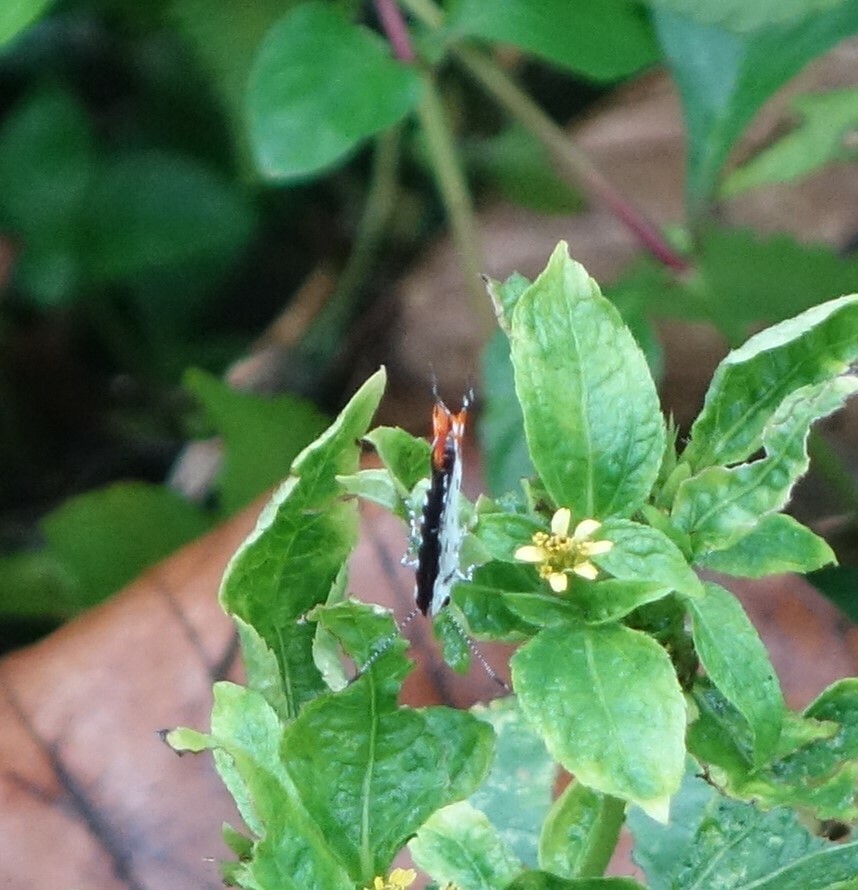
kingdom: Animalia
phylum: Arthropoda
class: Insecta
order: Lepidoptera
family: Lycaenidae
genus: Talicada
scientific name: Talicada nyseus
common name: Red pierrot
